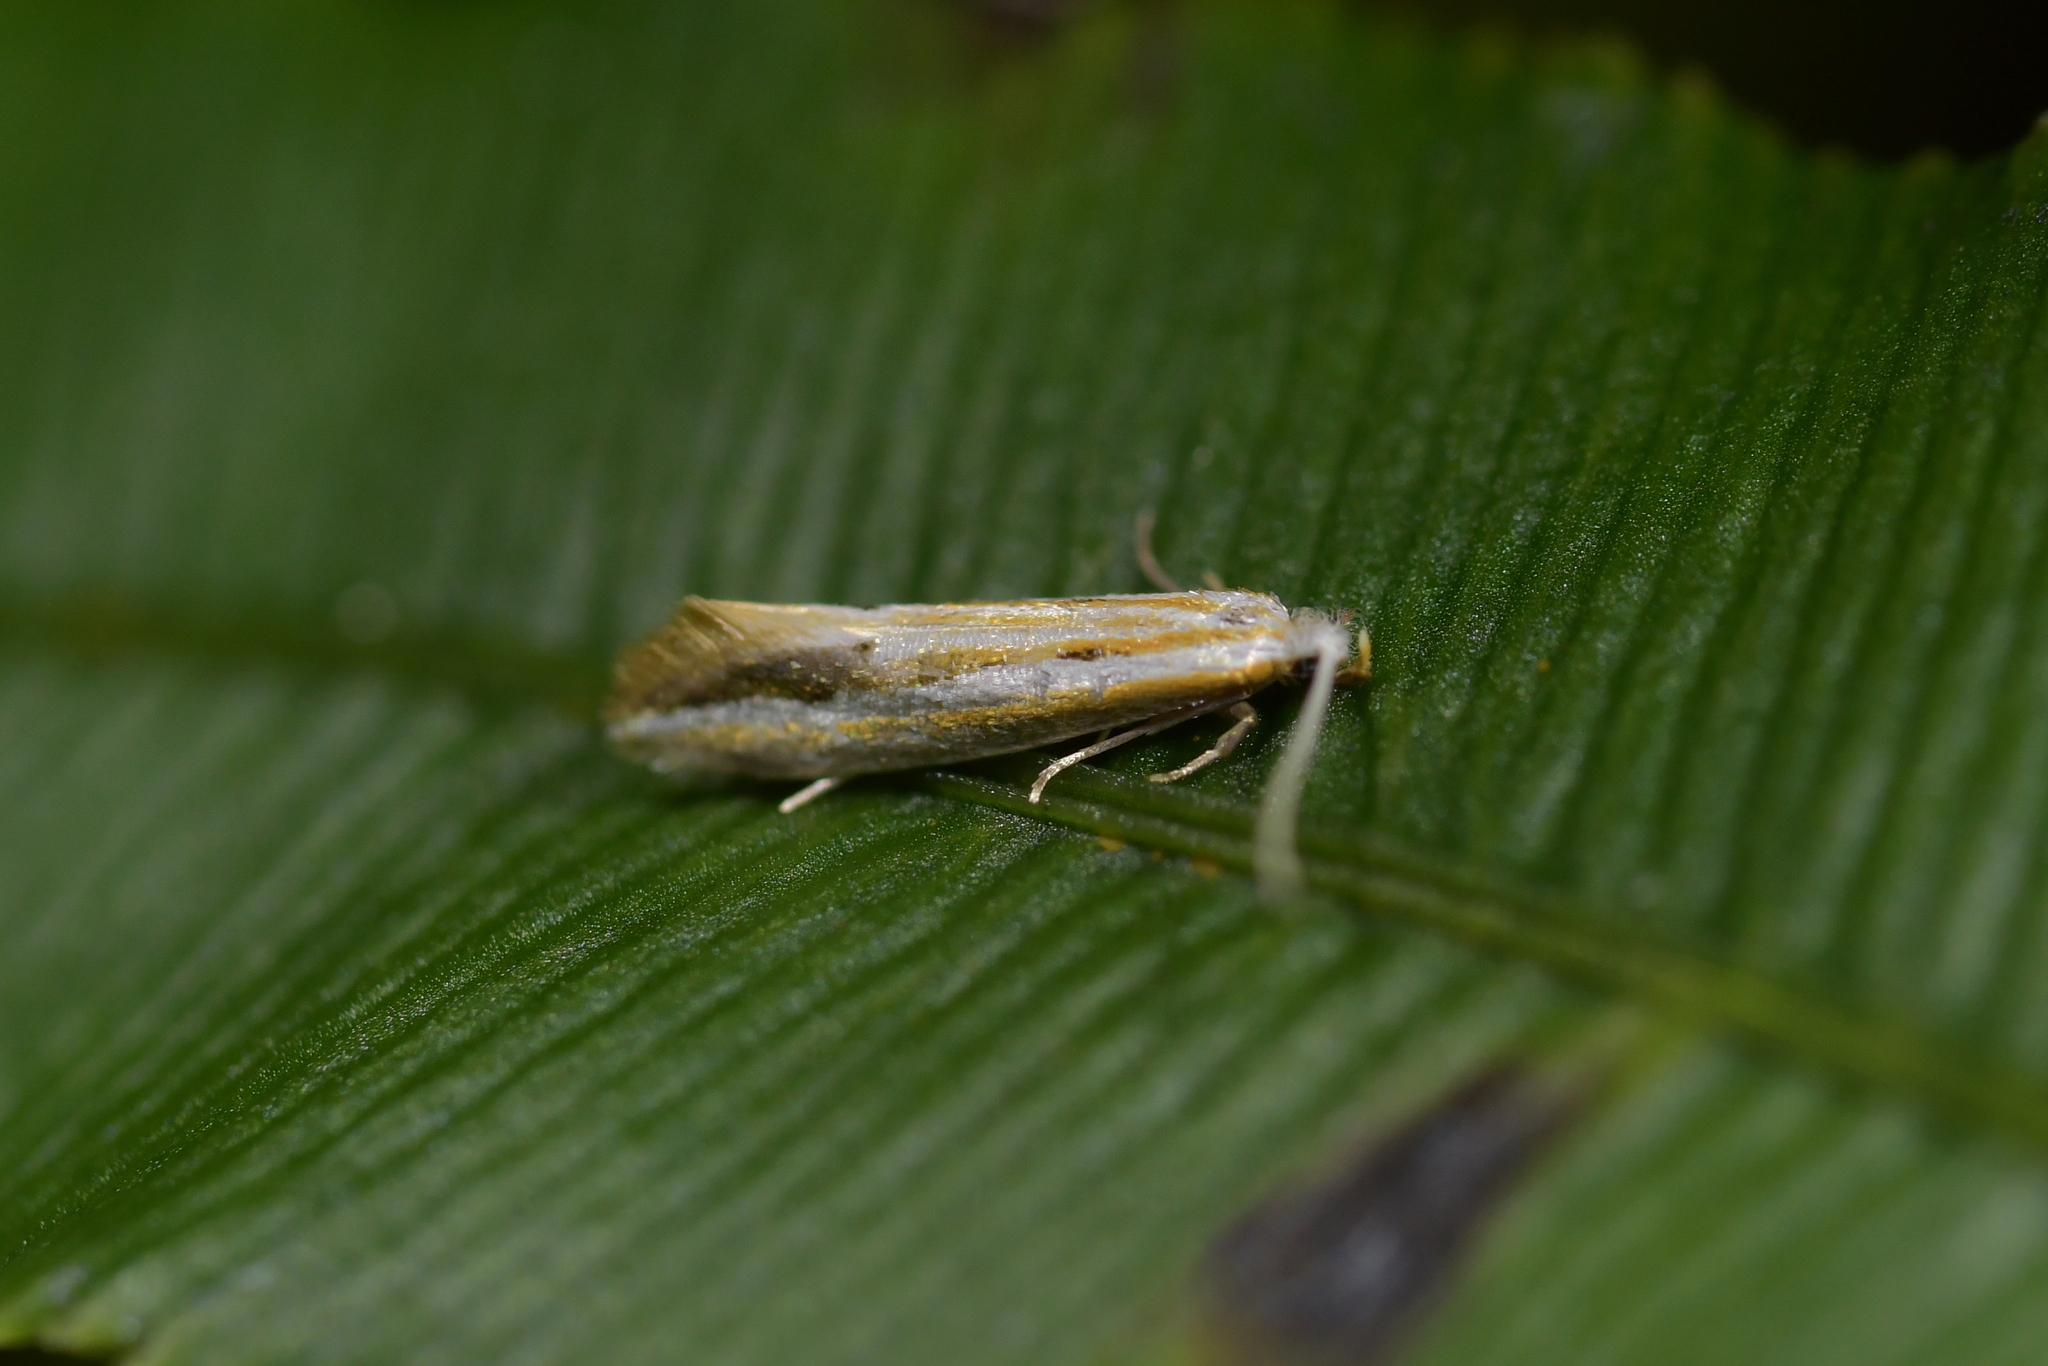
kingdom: Animalia
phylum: Arthropoda
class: Insecta
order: Lepidoptera
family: Tineidae
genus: Sagephora
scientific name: Sagephora exsanguis
